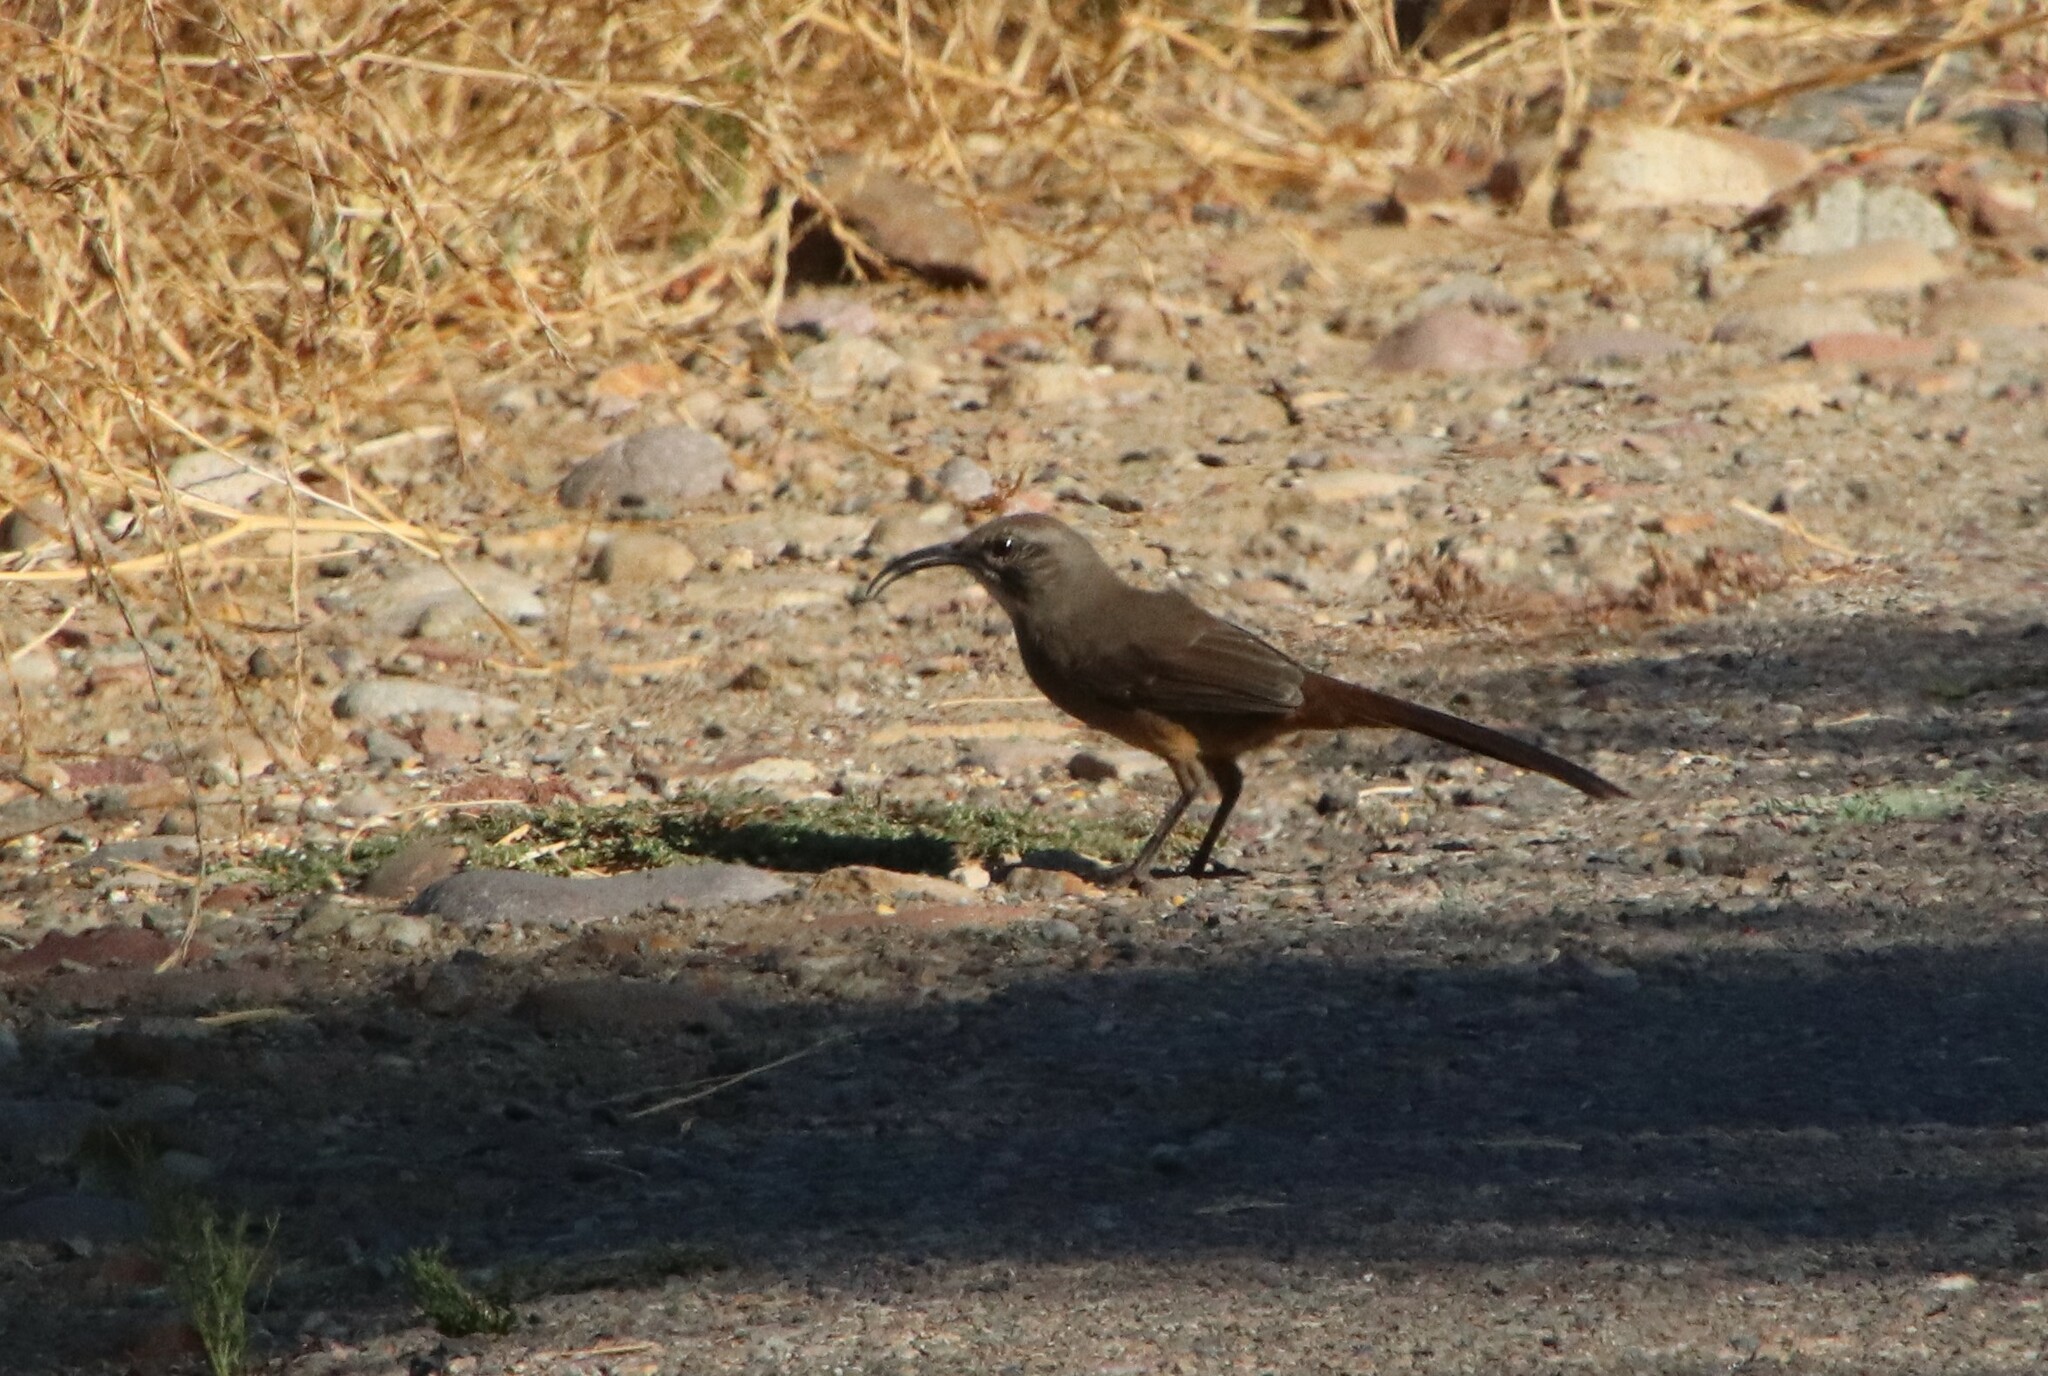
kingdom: Animalia
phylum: Chordata
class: Aves
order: Passeriformes
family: Mimidae
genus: Toxostoma
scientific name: Toxostoma redivivum
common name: California thrasher
